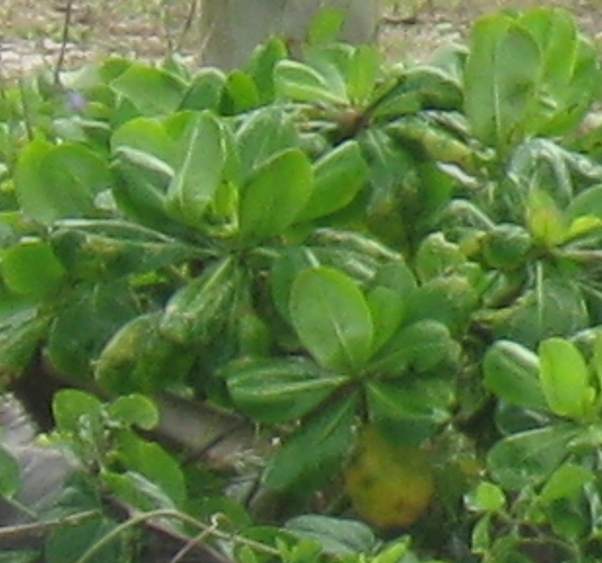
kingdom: Plantae
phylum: Tracheophyta
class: Magnoliopsida
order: Asterales
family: Goodeniaceae
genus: Scaevola
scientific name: Scaevola taccada
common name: Sea lettucetree
